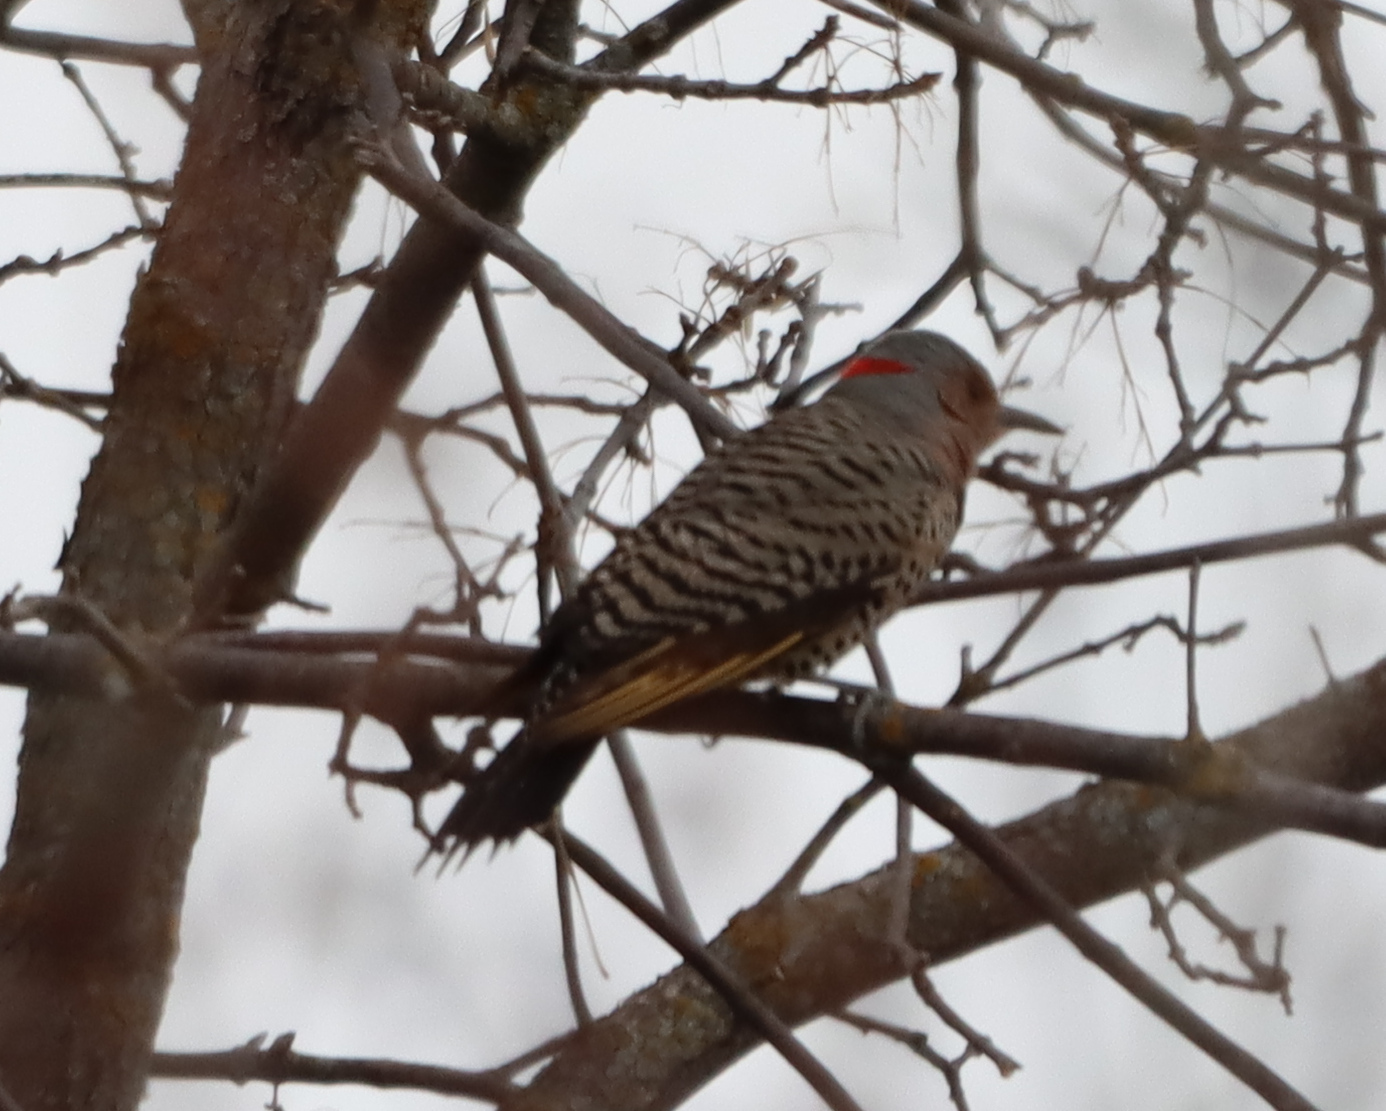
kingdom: Animalia
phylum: Chordata
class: Aves
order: Piciformes
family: Picidae
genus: Colaptes
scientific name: Colaptes auratus
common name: Northern flicker
